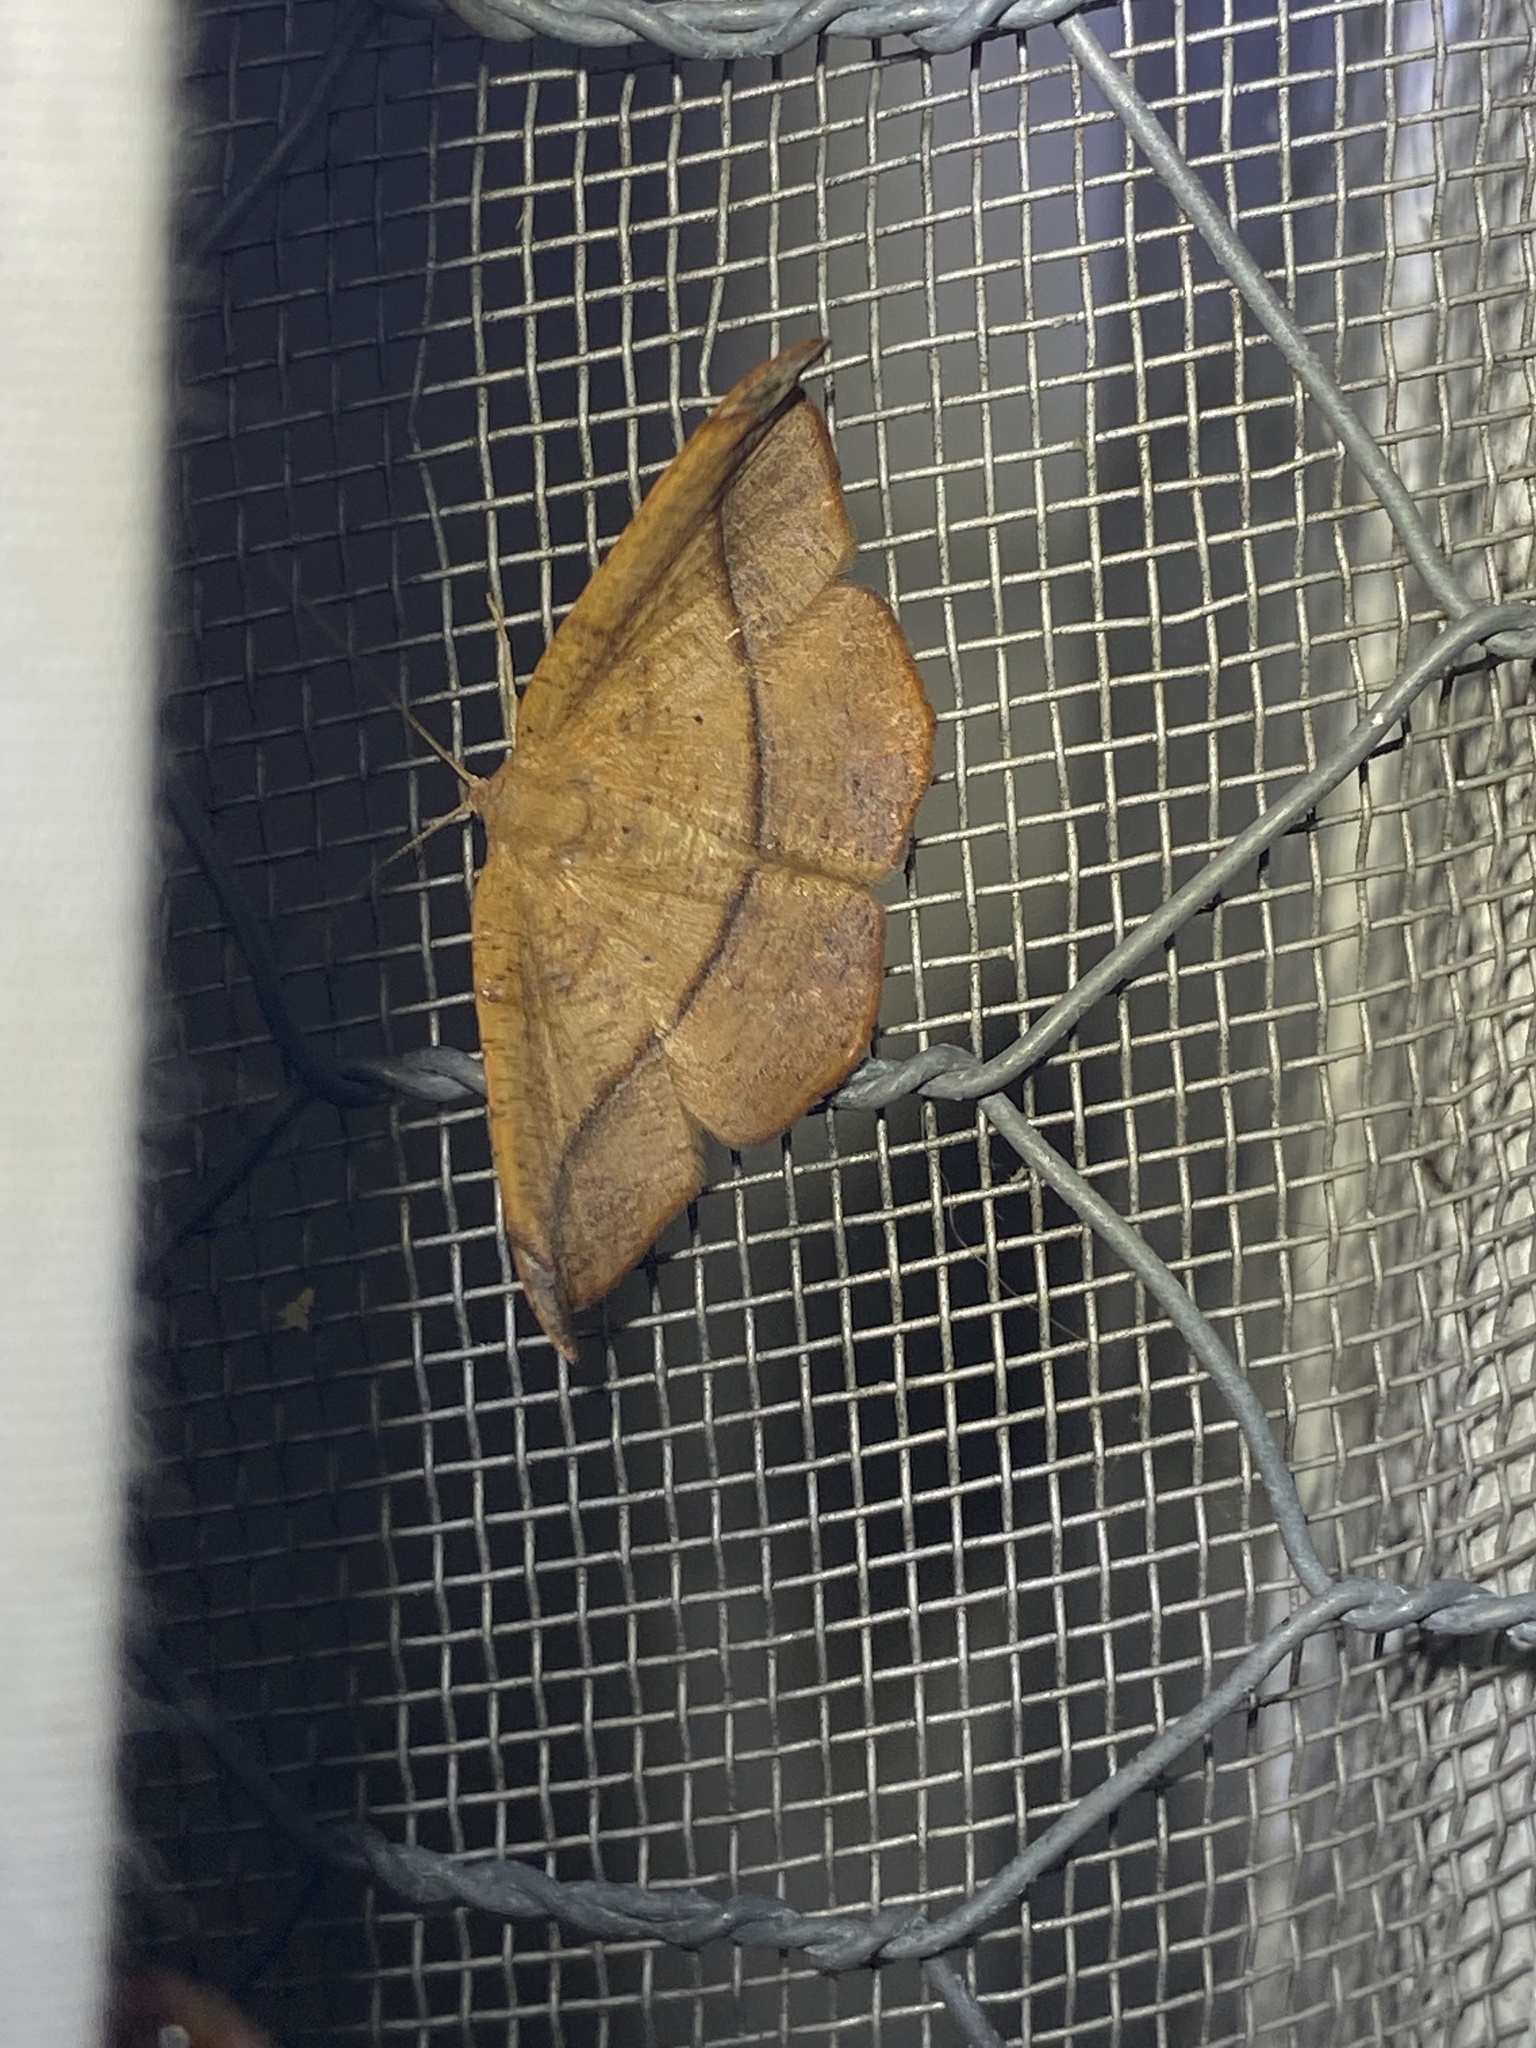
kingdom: Animalia
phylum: Arthropoda
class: Insecta
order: Lepidoptera
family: Geometridae
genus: Patalene
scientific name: Patalene olyzonaria
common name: Juniper geometer moth
